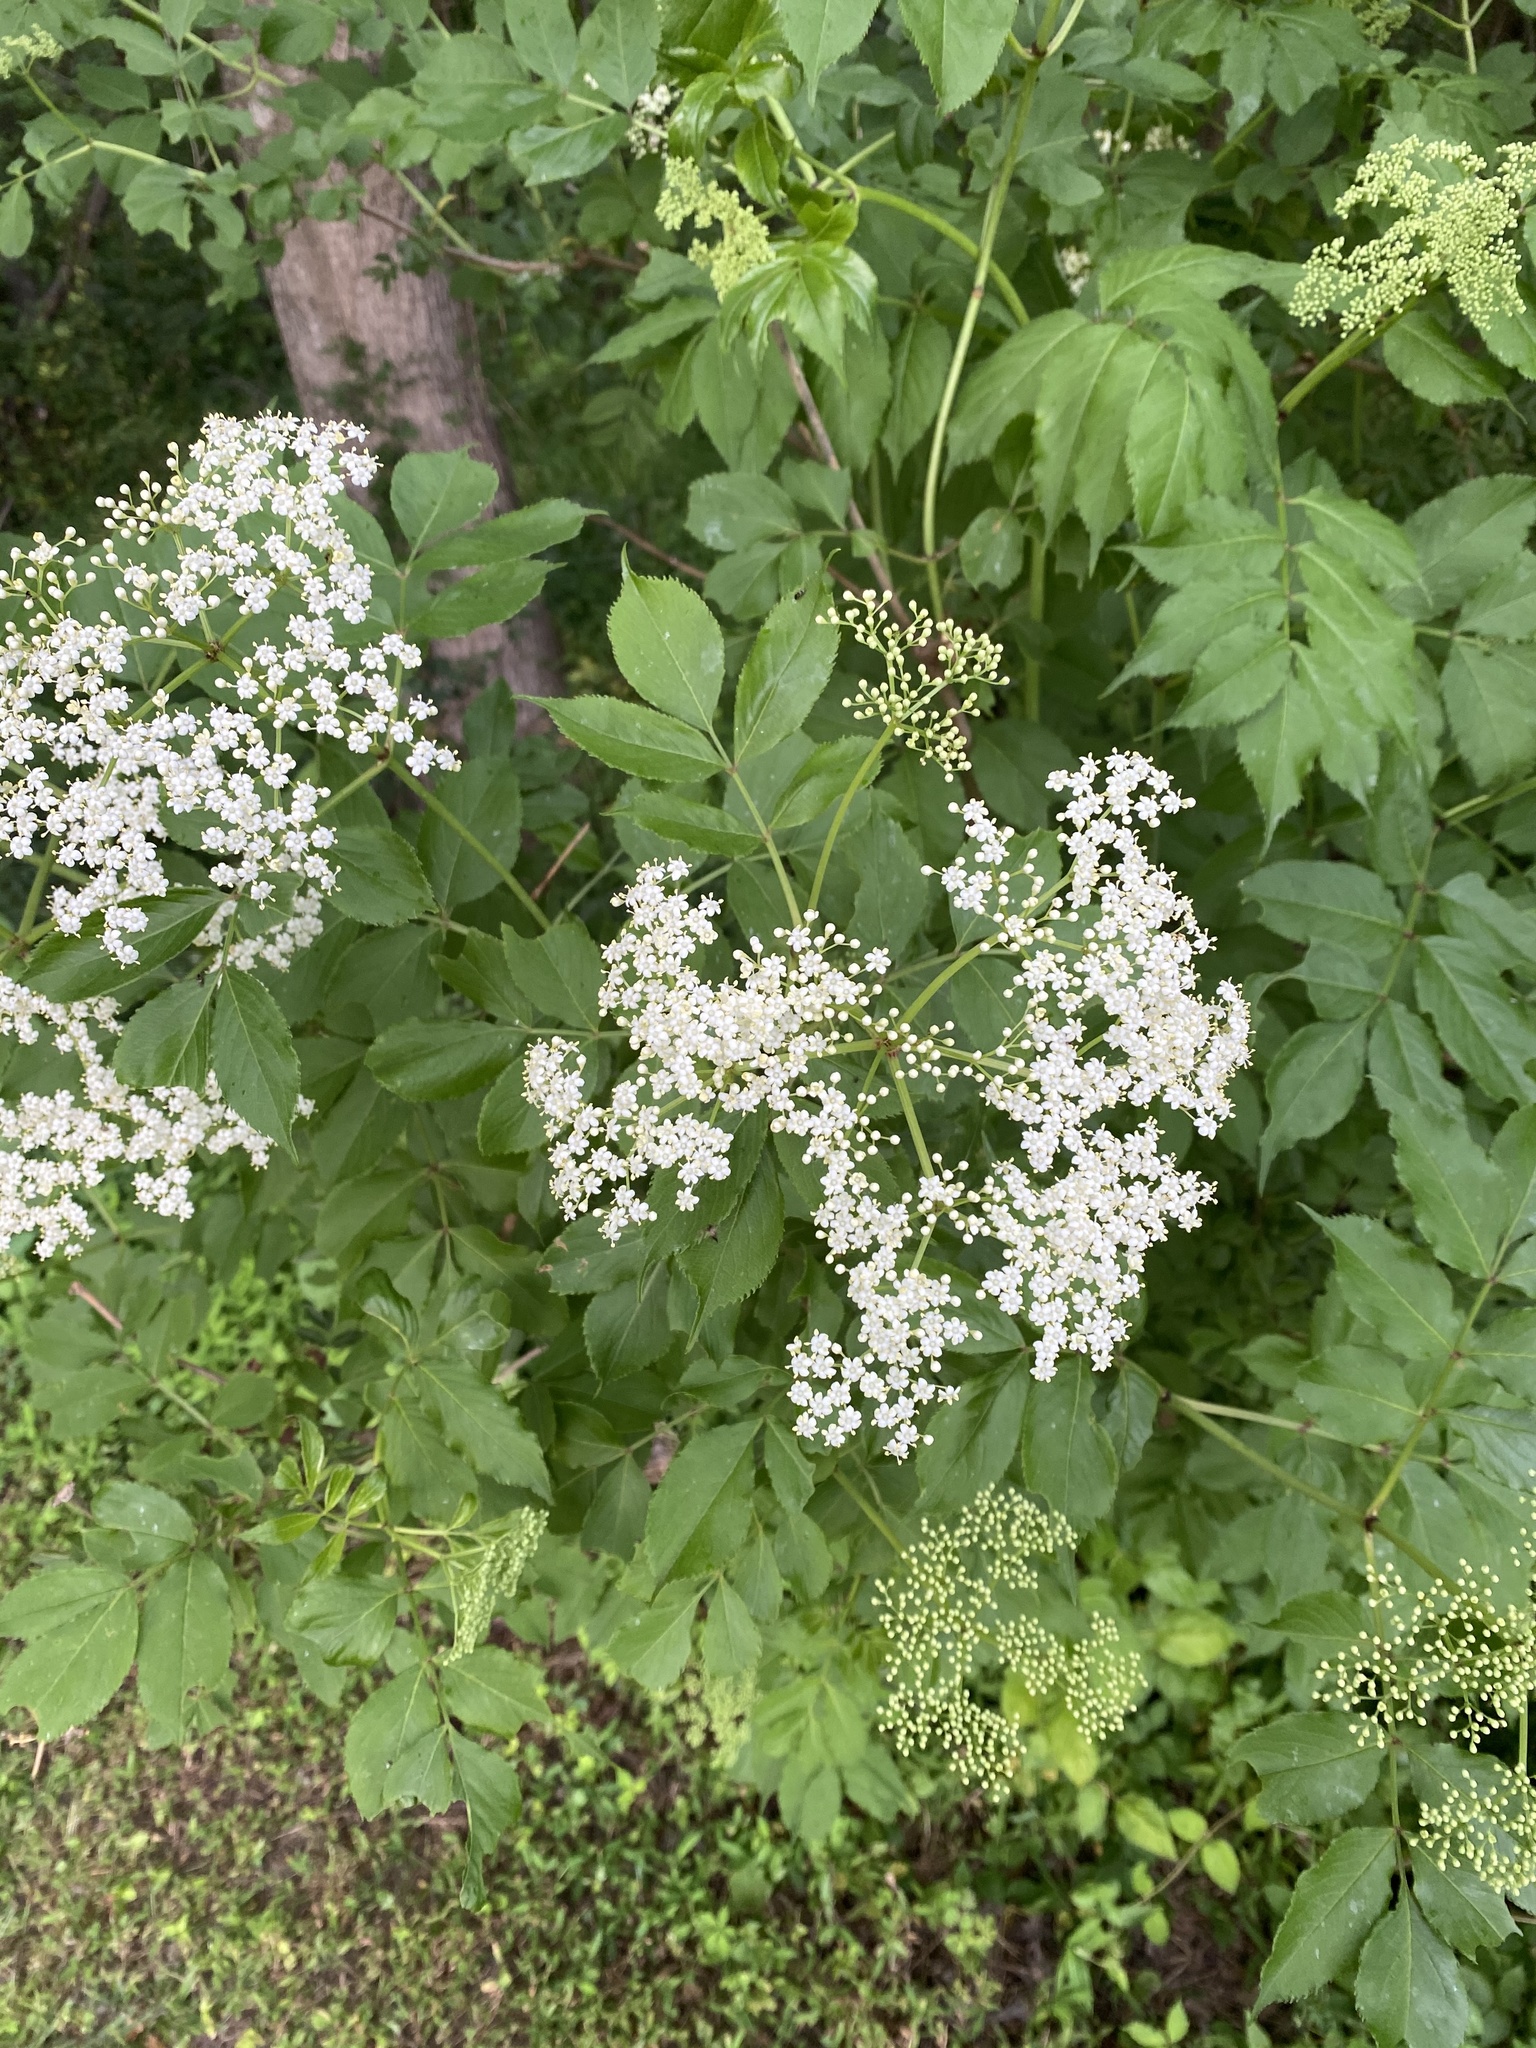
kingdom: Plantae
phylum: Tracheophyta
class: Magnoliopsida
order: Dipsacales
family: Viburnaceae
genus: Sambucus
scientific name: Sambucus canadensis
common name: American elder
